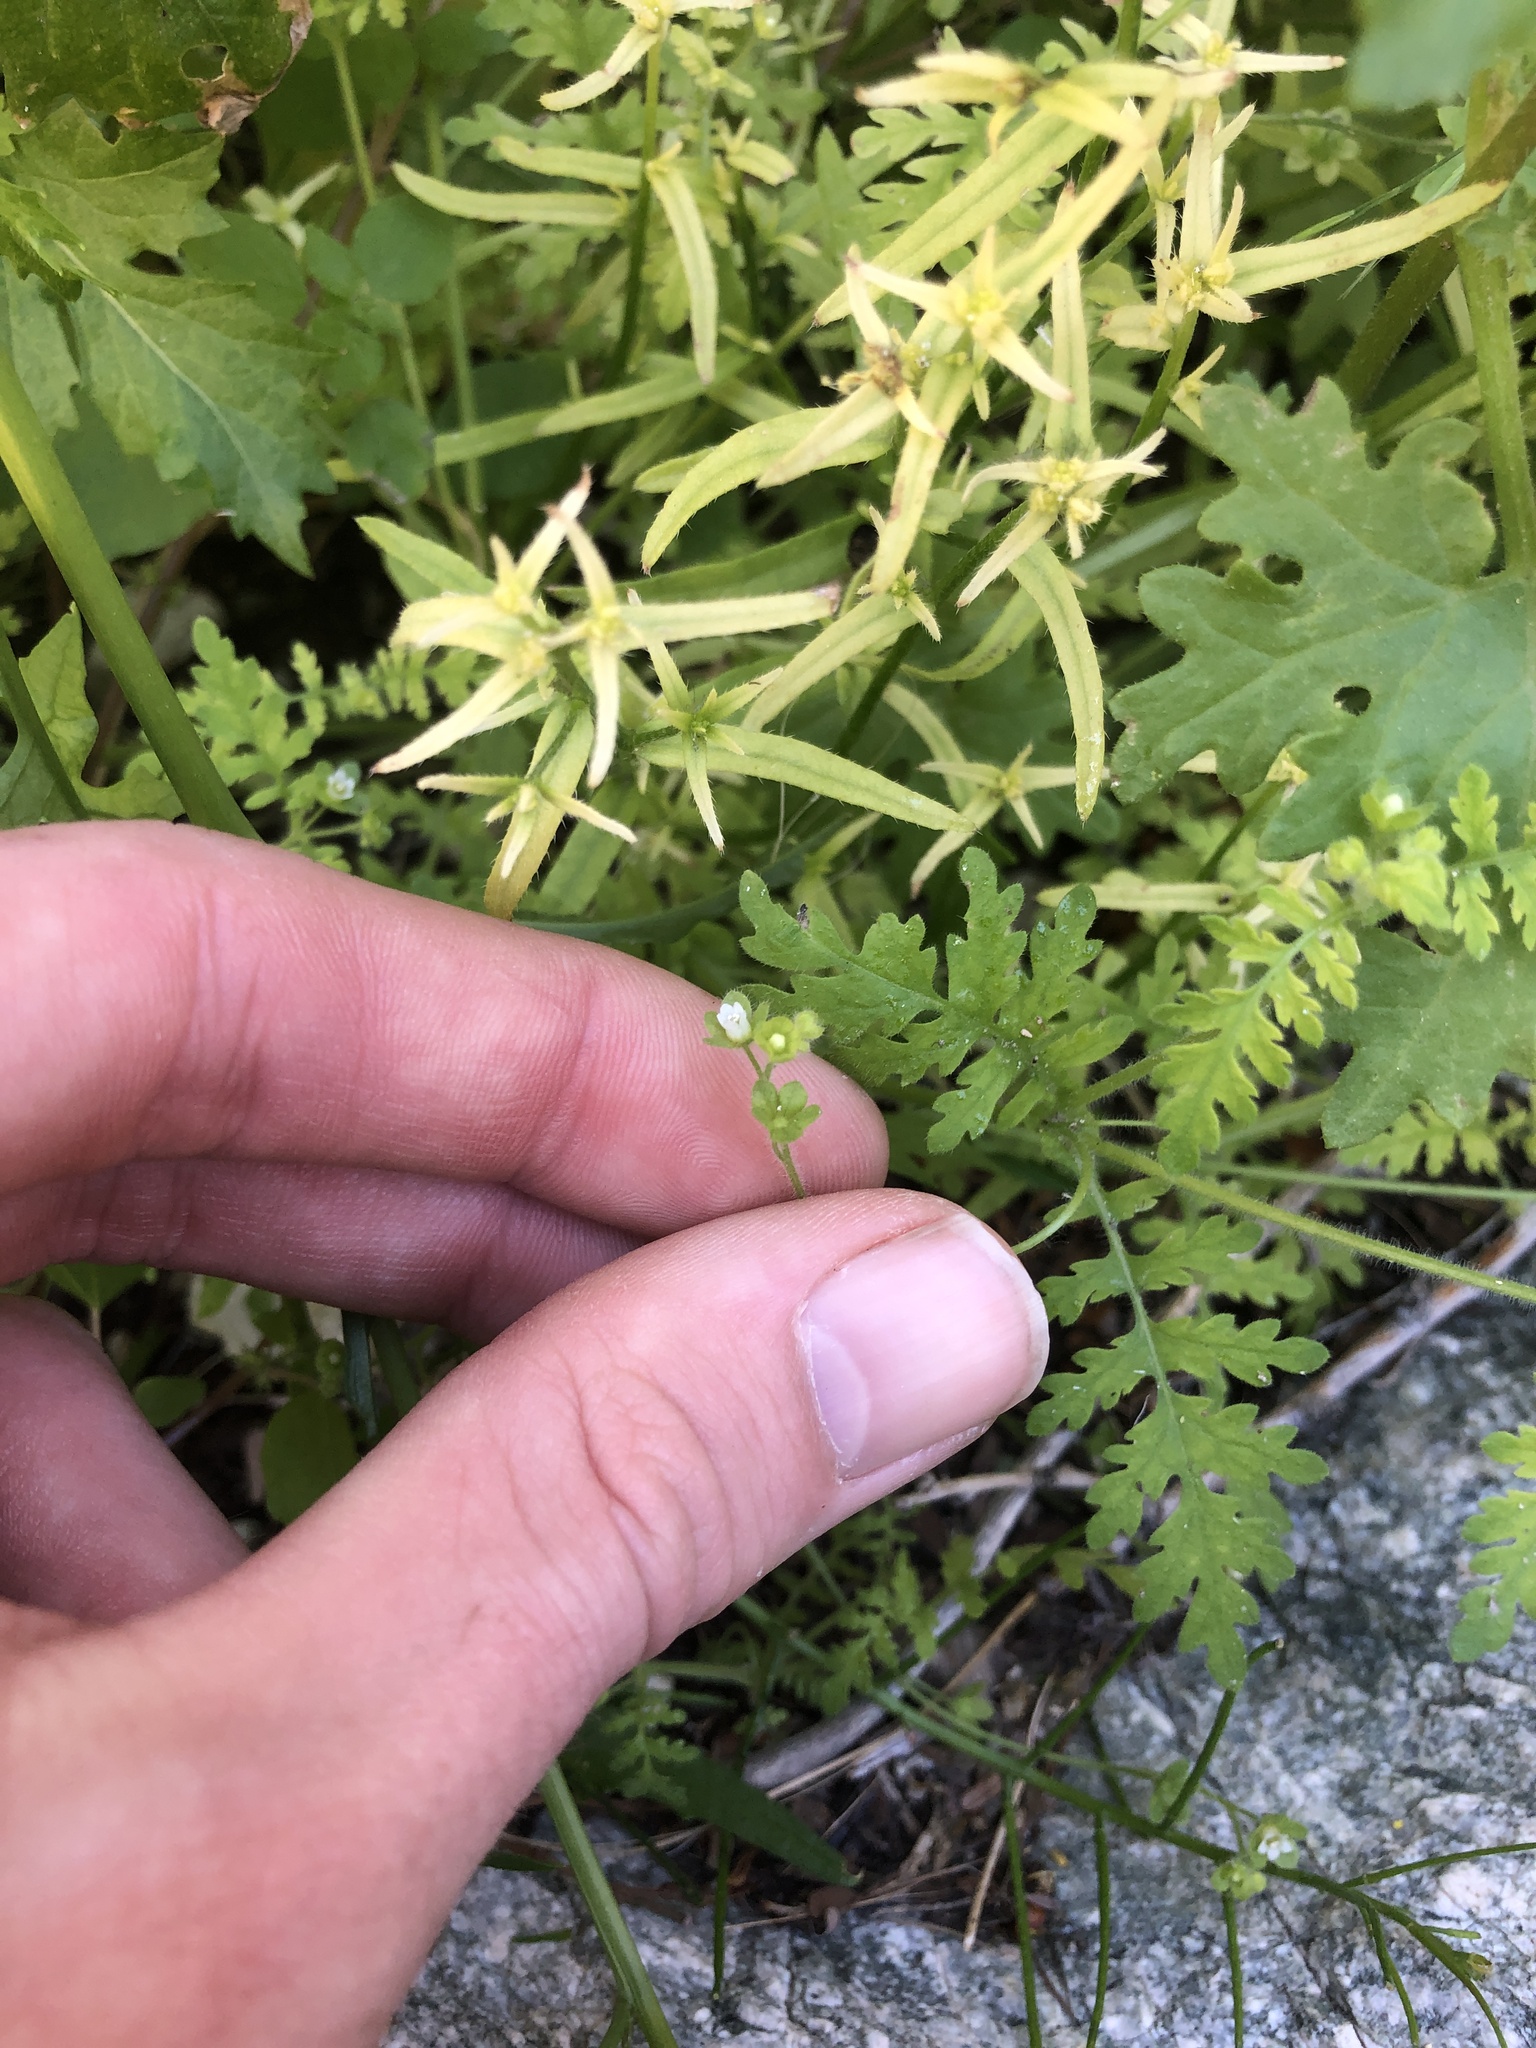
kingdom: Plantae
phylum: Tracheophyta
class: Magnoliopsida
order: Boraginales
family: Hydrophyllaceae
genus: Eucrypta
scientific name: Eucrypta chrysanthemifolia
